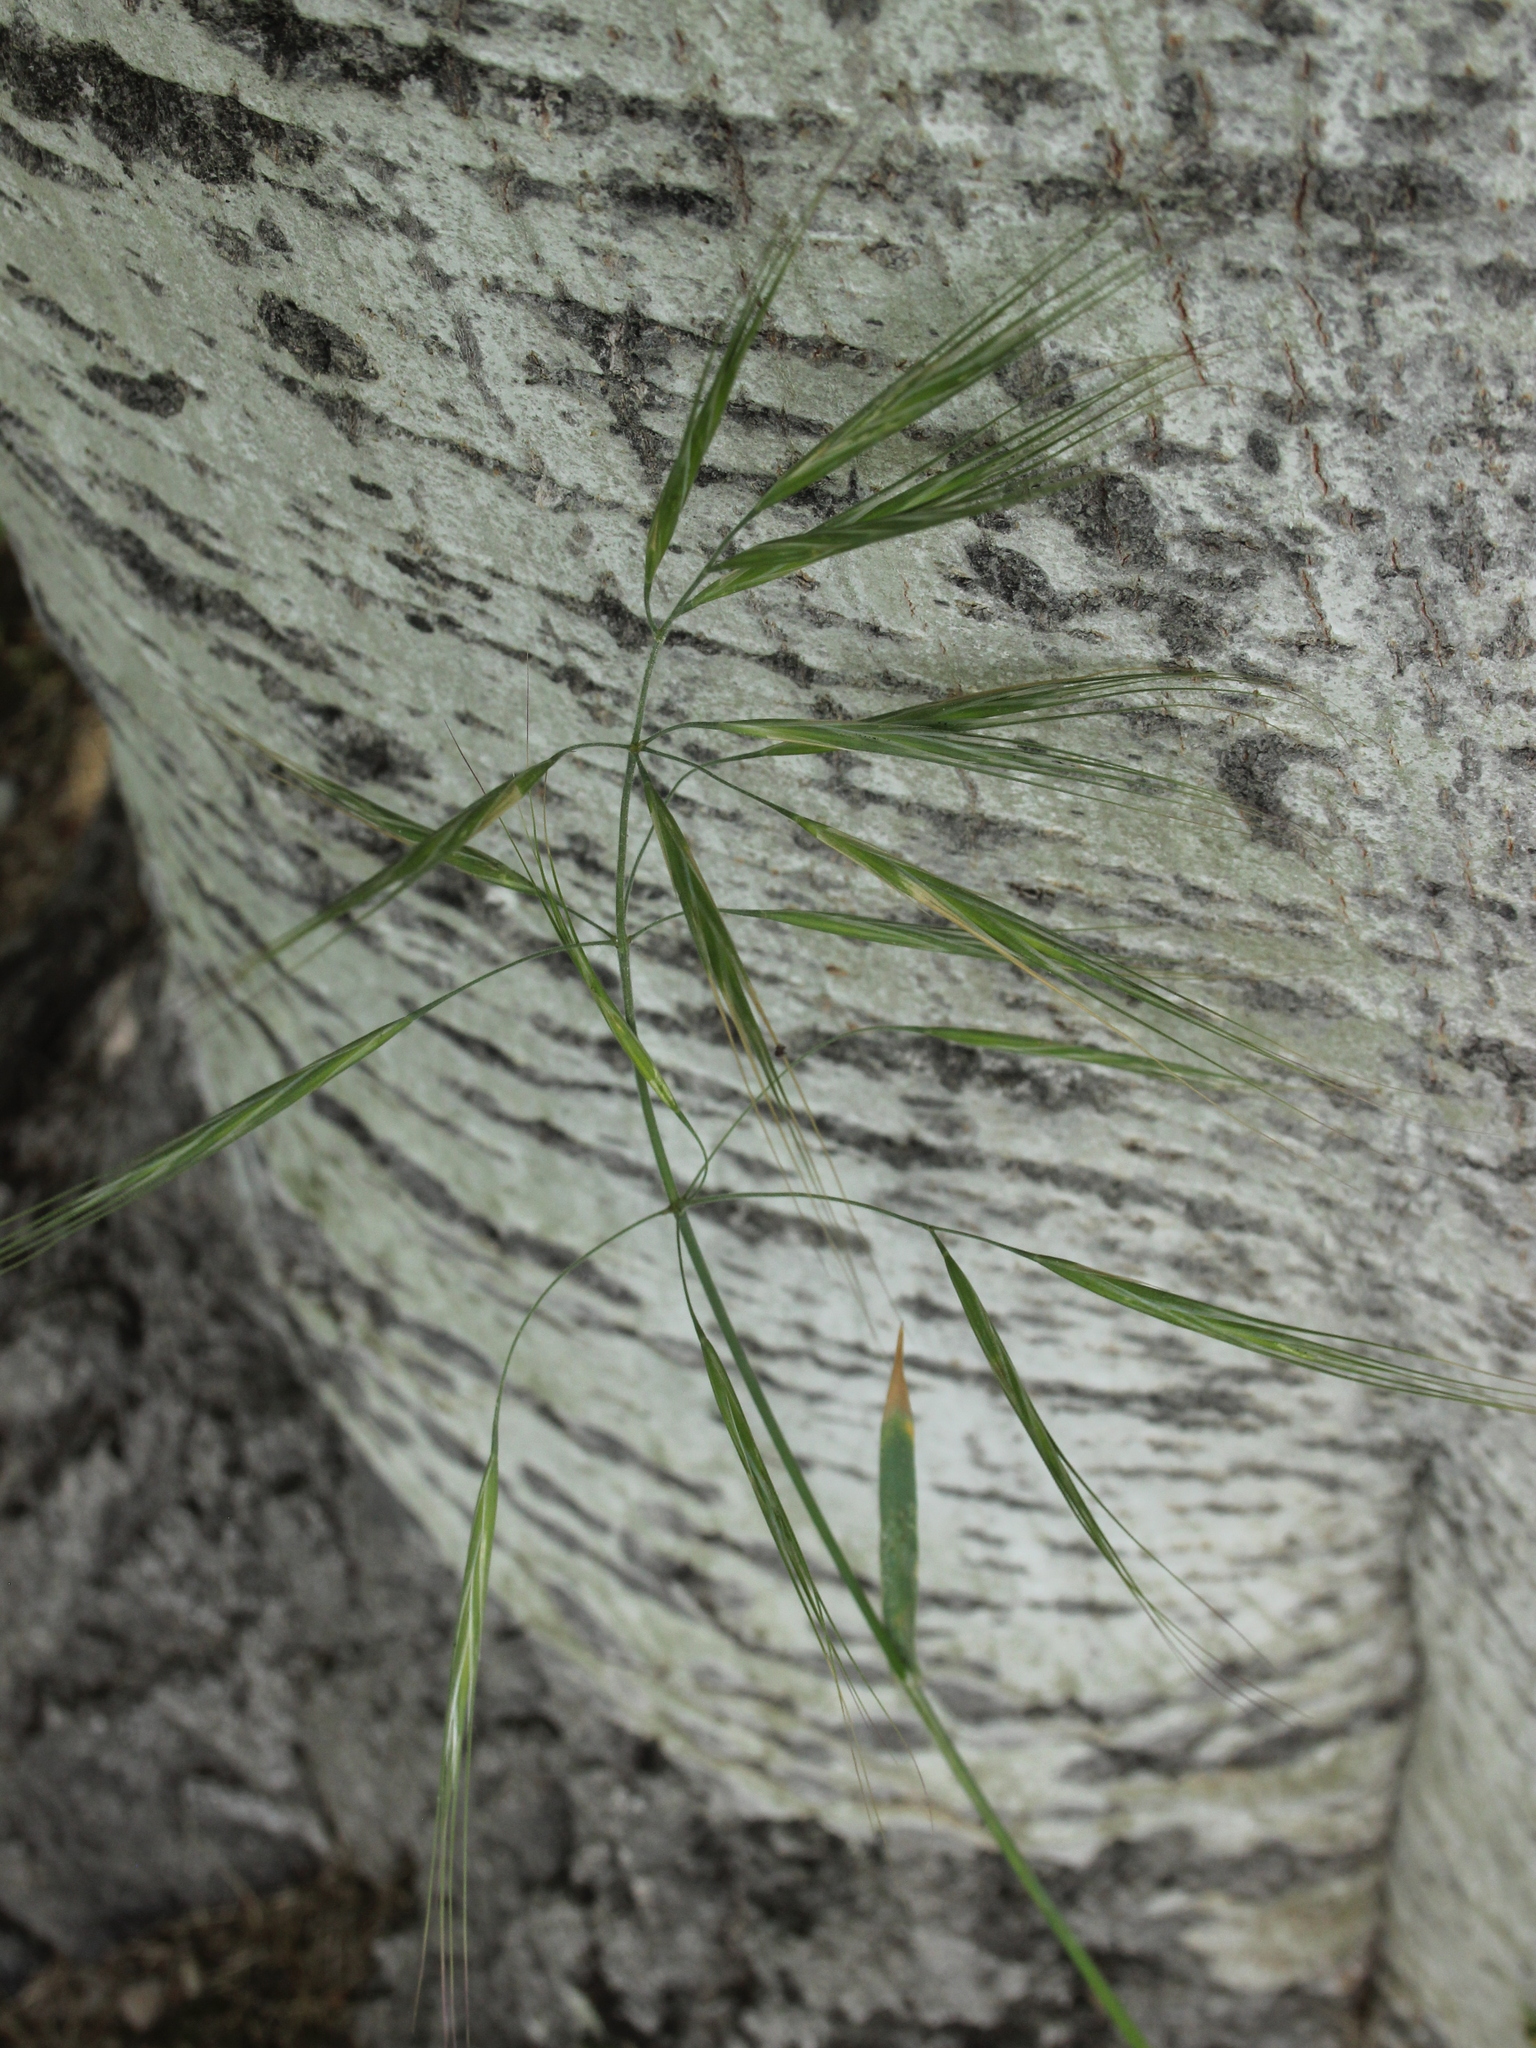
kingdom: Plantae
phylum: Tracheophyta
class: Liliopsida
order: Poales
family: Poaceae
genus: Bromus
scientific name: Bromus diandrus
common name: Ripgut brome
